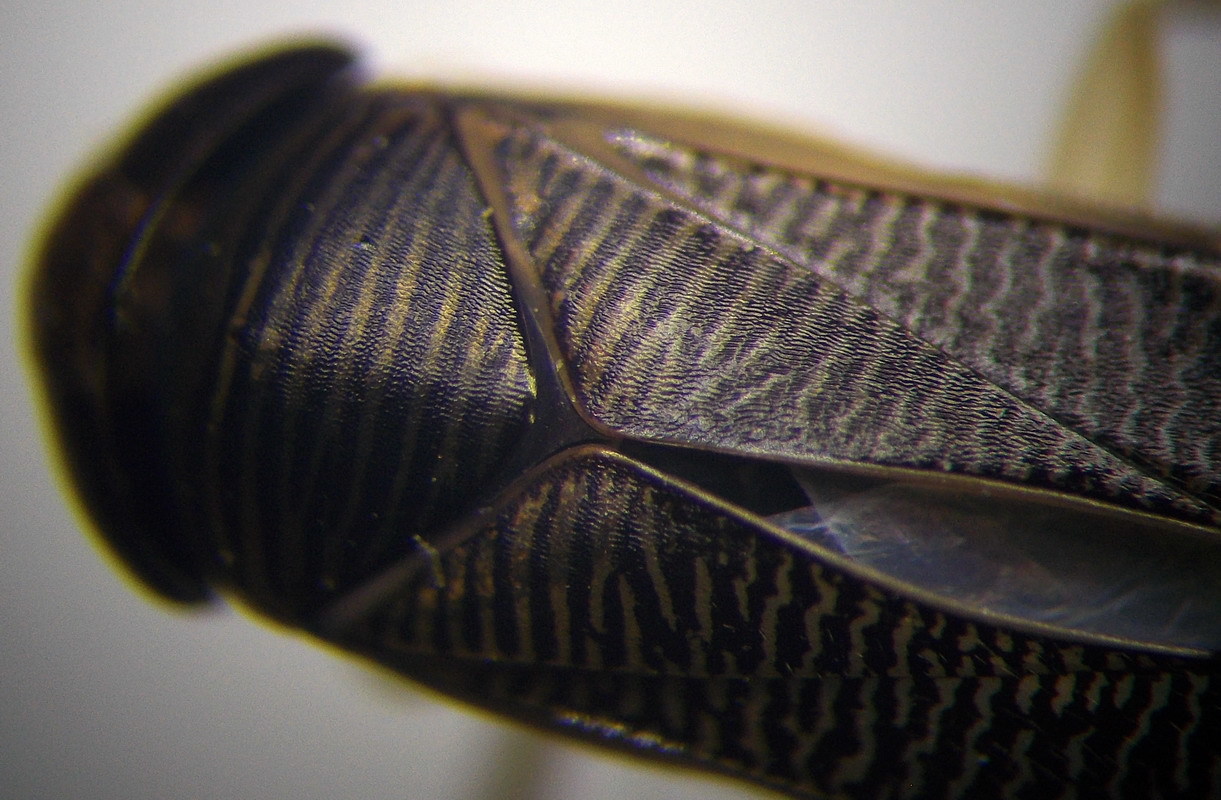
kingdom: Animalia
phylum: Arthropoda
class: Insecta
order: Hemiptera
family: Corixidae
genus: Sigara
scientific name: Sigara distincta
